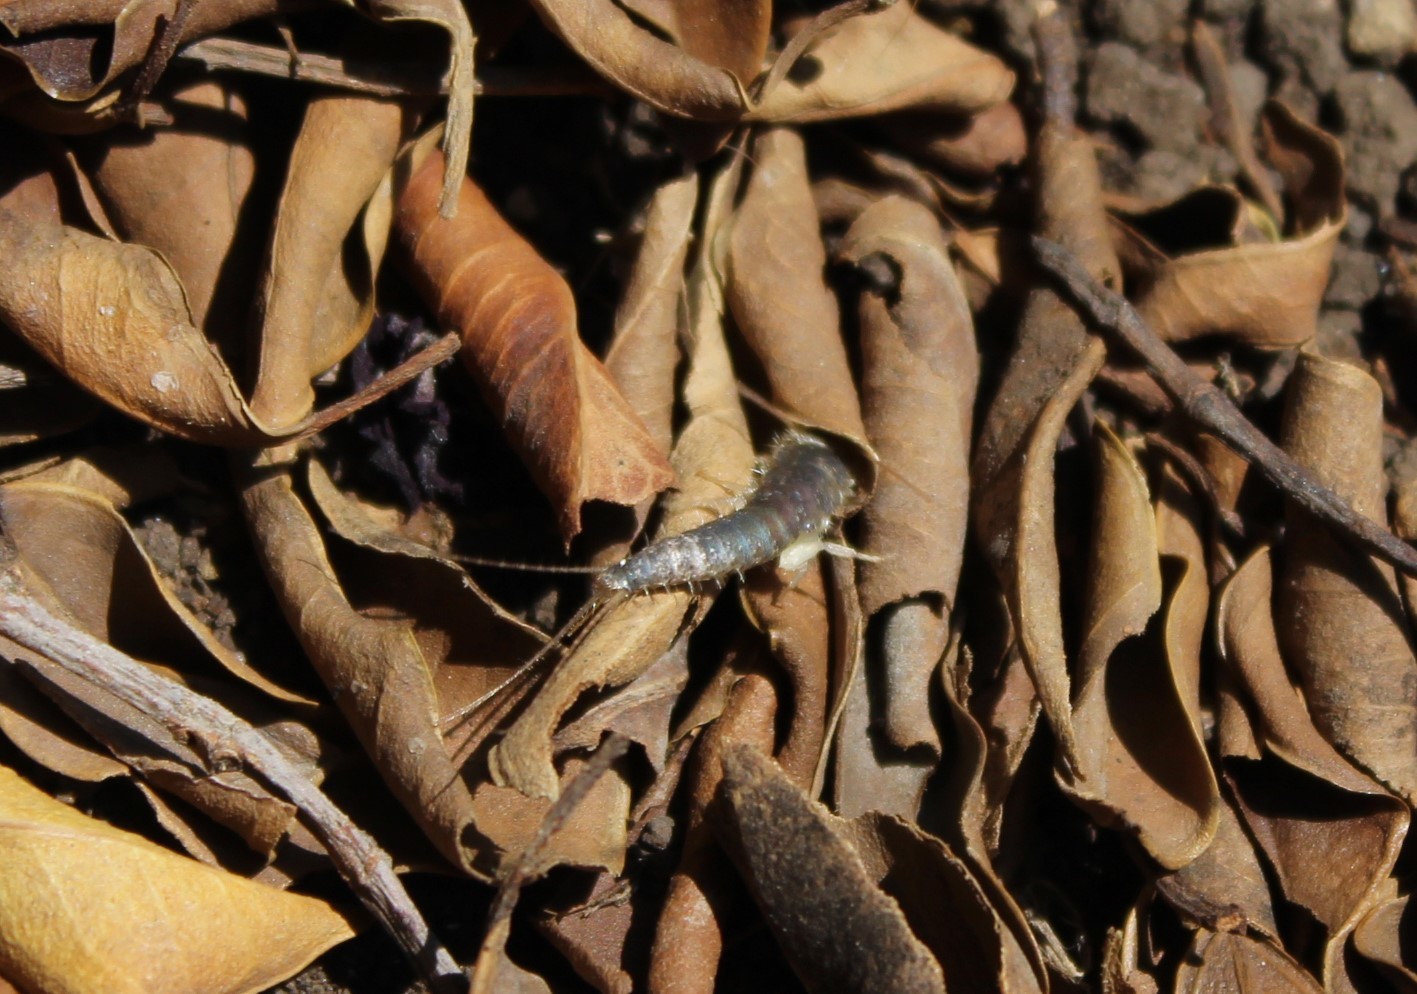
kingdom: Animalia
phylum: Arthropoda
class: Insecta
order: Zygentoma
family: Lepismatidae
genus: Ctenolepisma
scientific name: Ctenolepisma longicaudatum
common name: Silverfish
